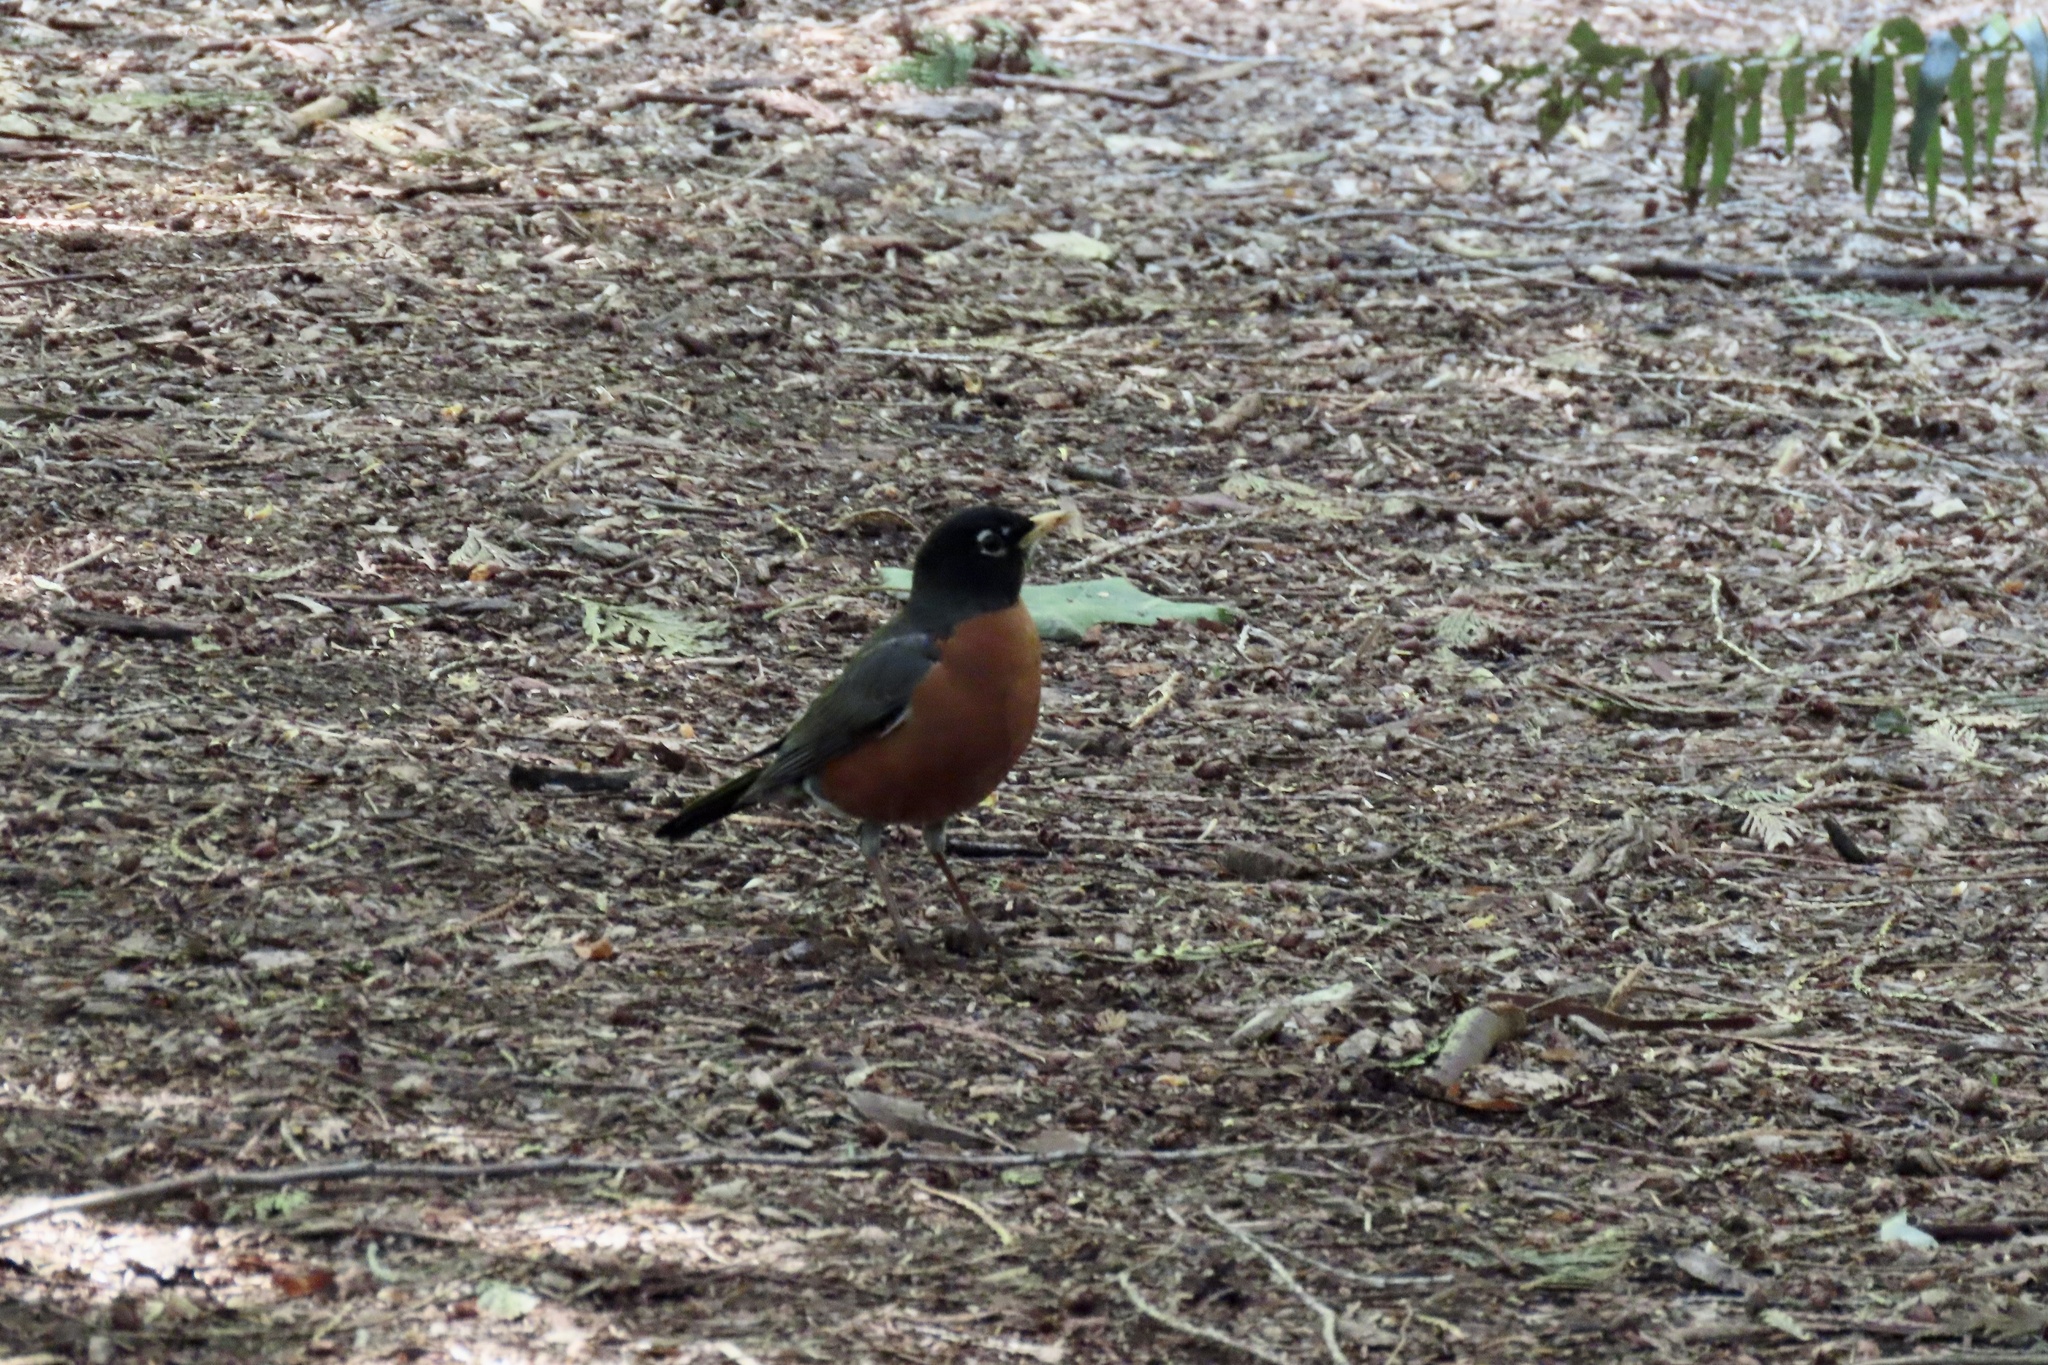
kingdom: Animalia
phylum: Chordata
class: Aves
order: Passeriformes
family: Turdidae
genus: Turdus
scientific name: Turdus migratorius
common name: American robin
